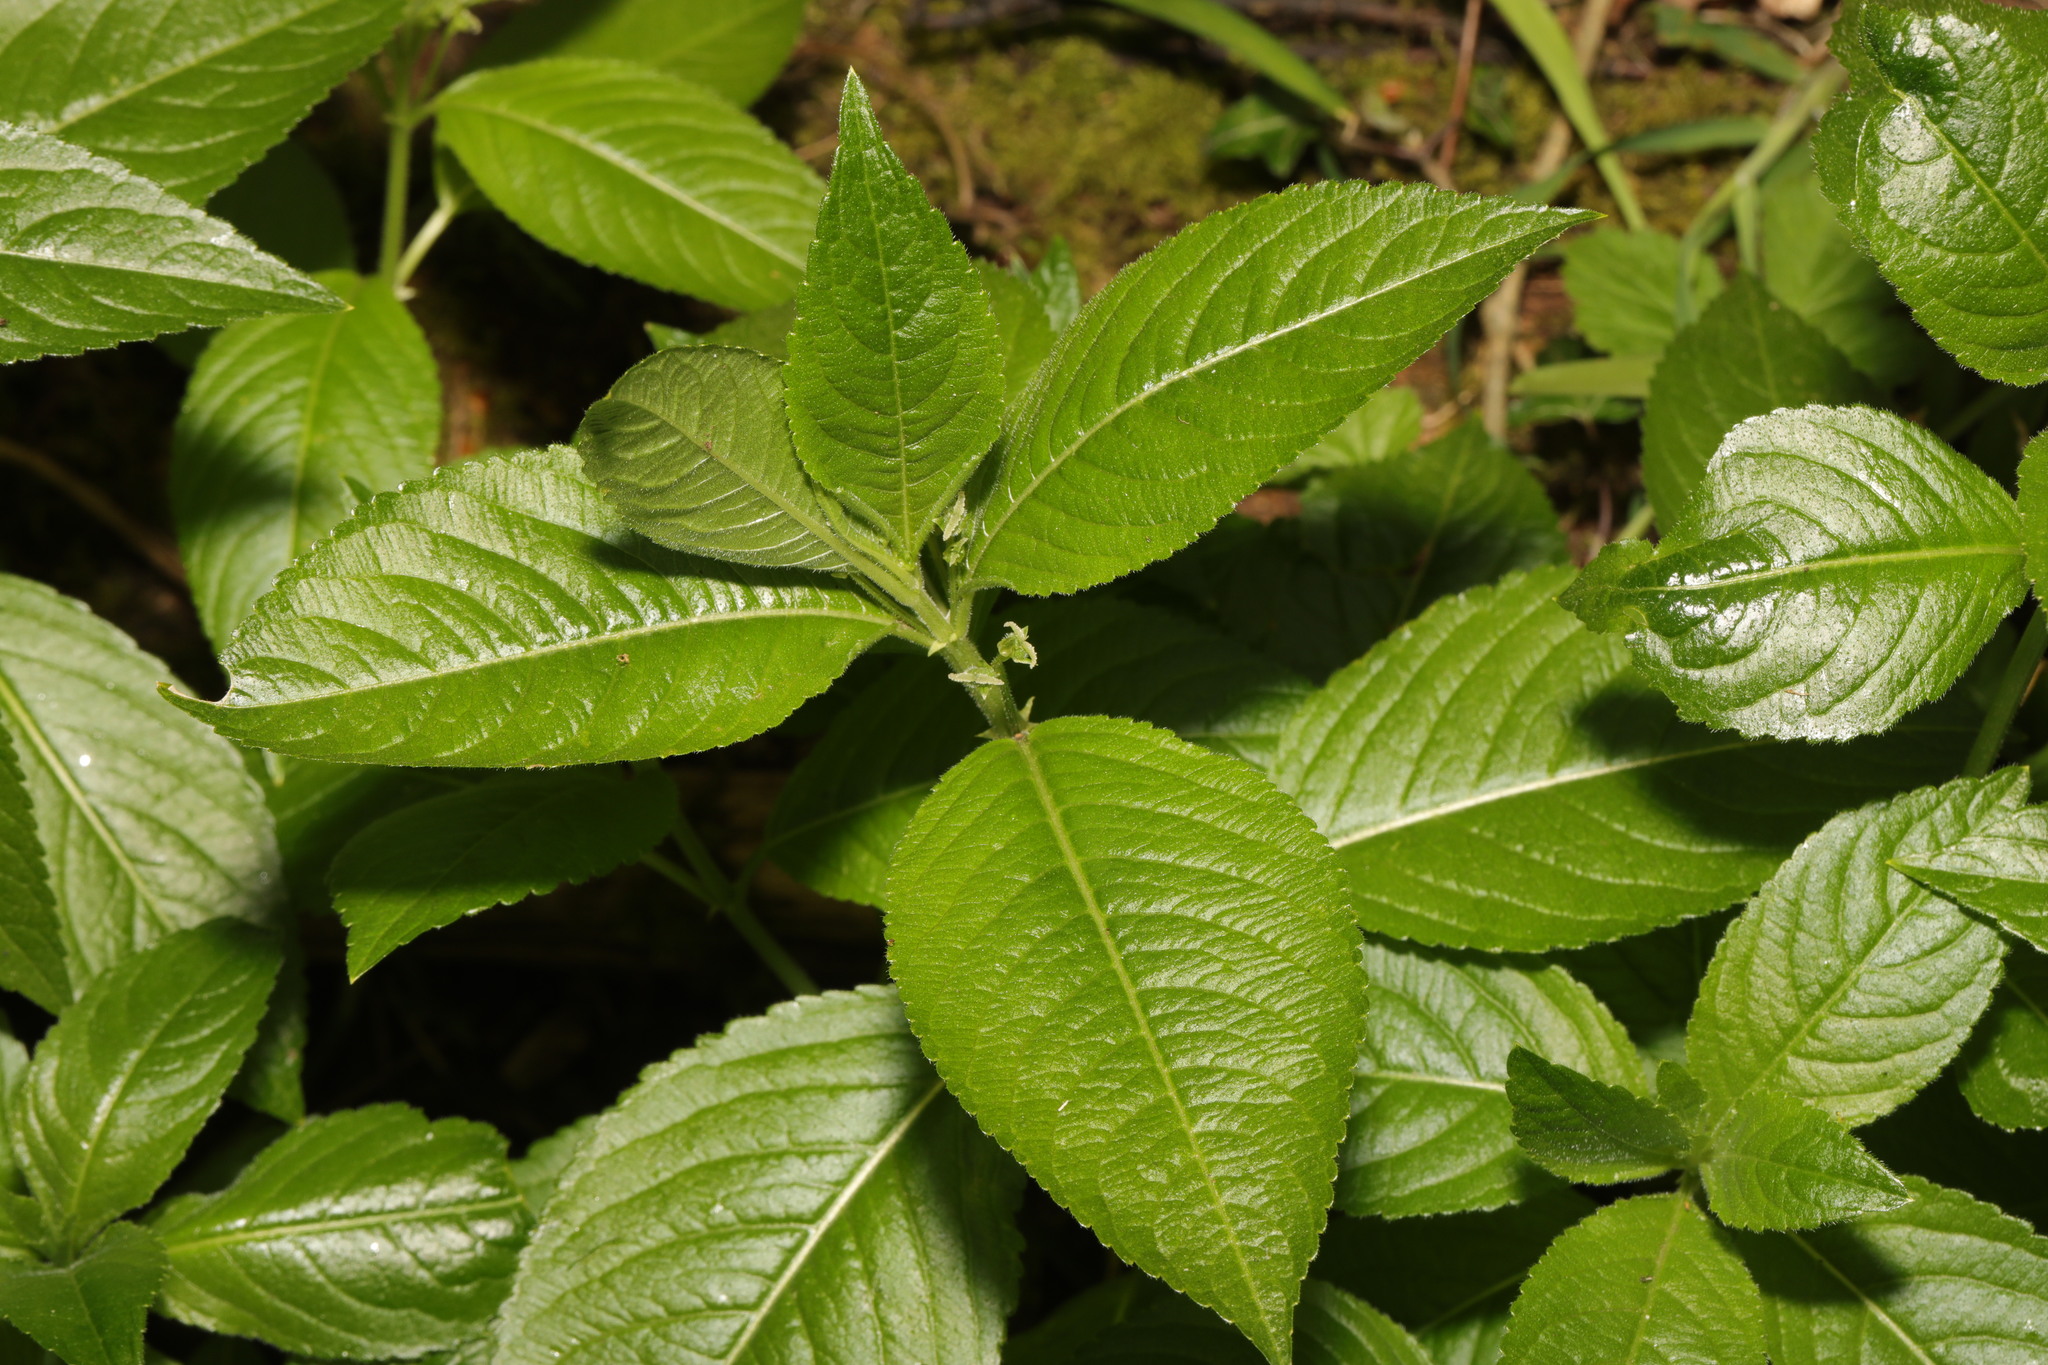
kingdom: Plantae
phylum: Tracheophyta
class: Magnoliopsida
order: Malpighiales
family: Euphorbiaceae
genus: Mercurialis
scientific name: Mercurialis perennis
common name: Dog mercury
